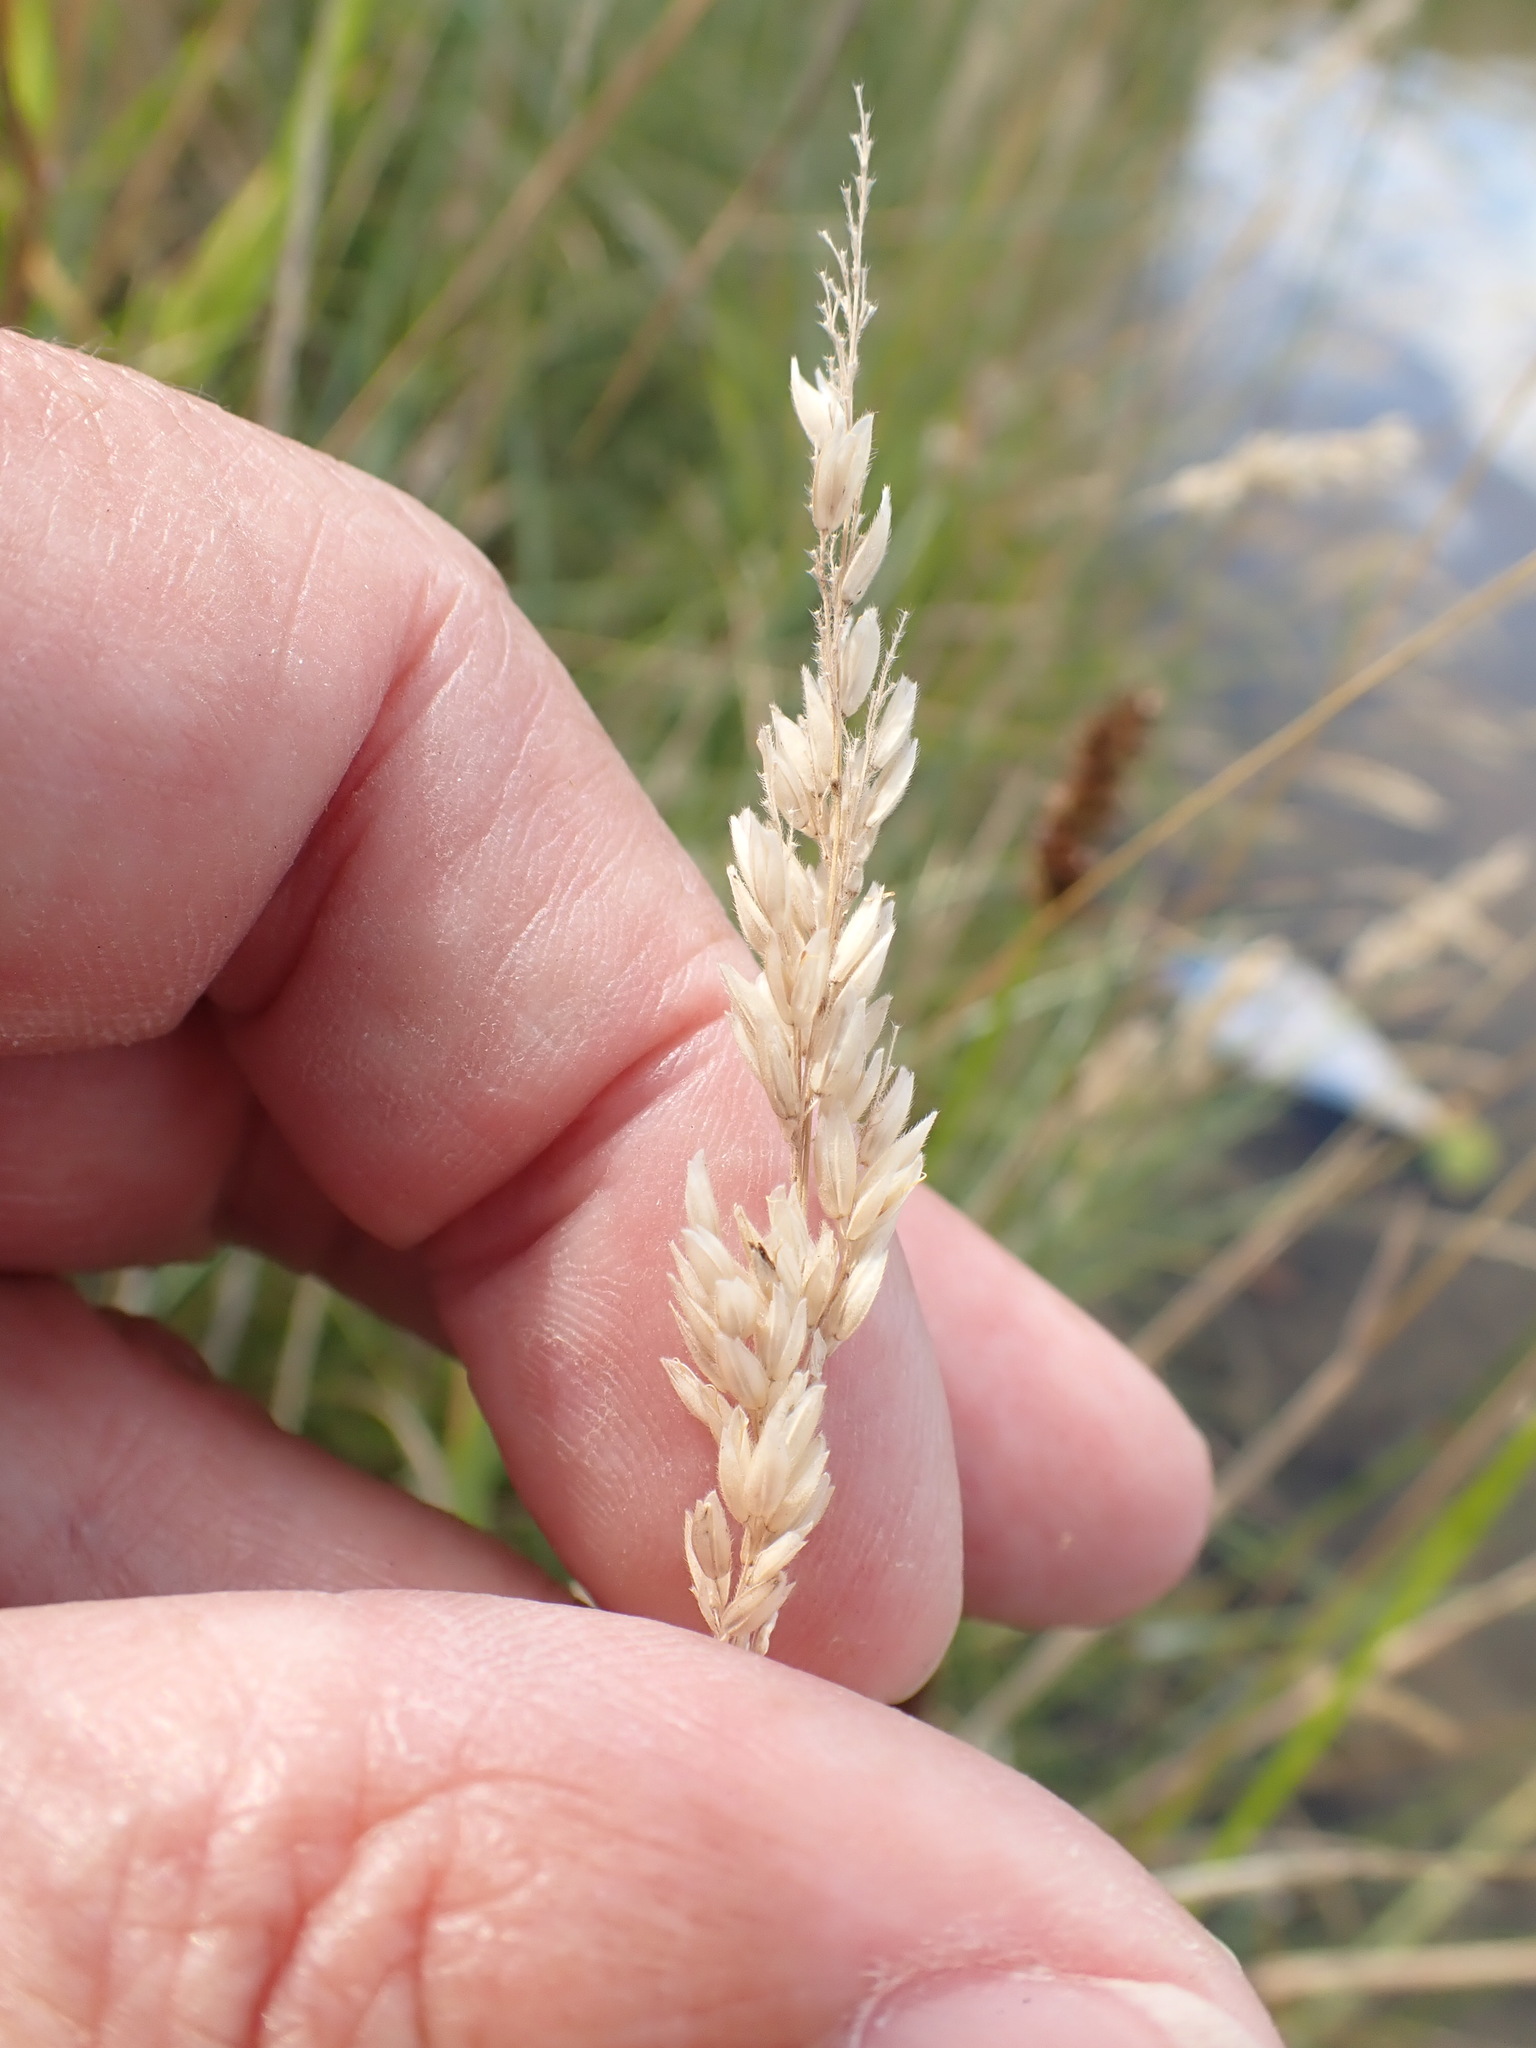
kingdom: Plantae
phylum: Tracheophyta
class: Liliopsida
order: Poales
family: Poaceae
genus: Holcus
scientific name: Holcus lanatus
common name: Yorkshire-fog
